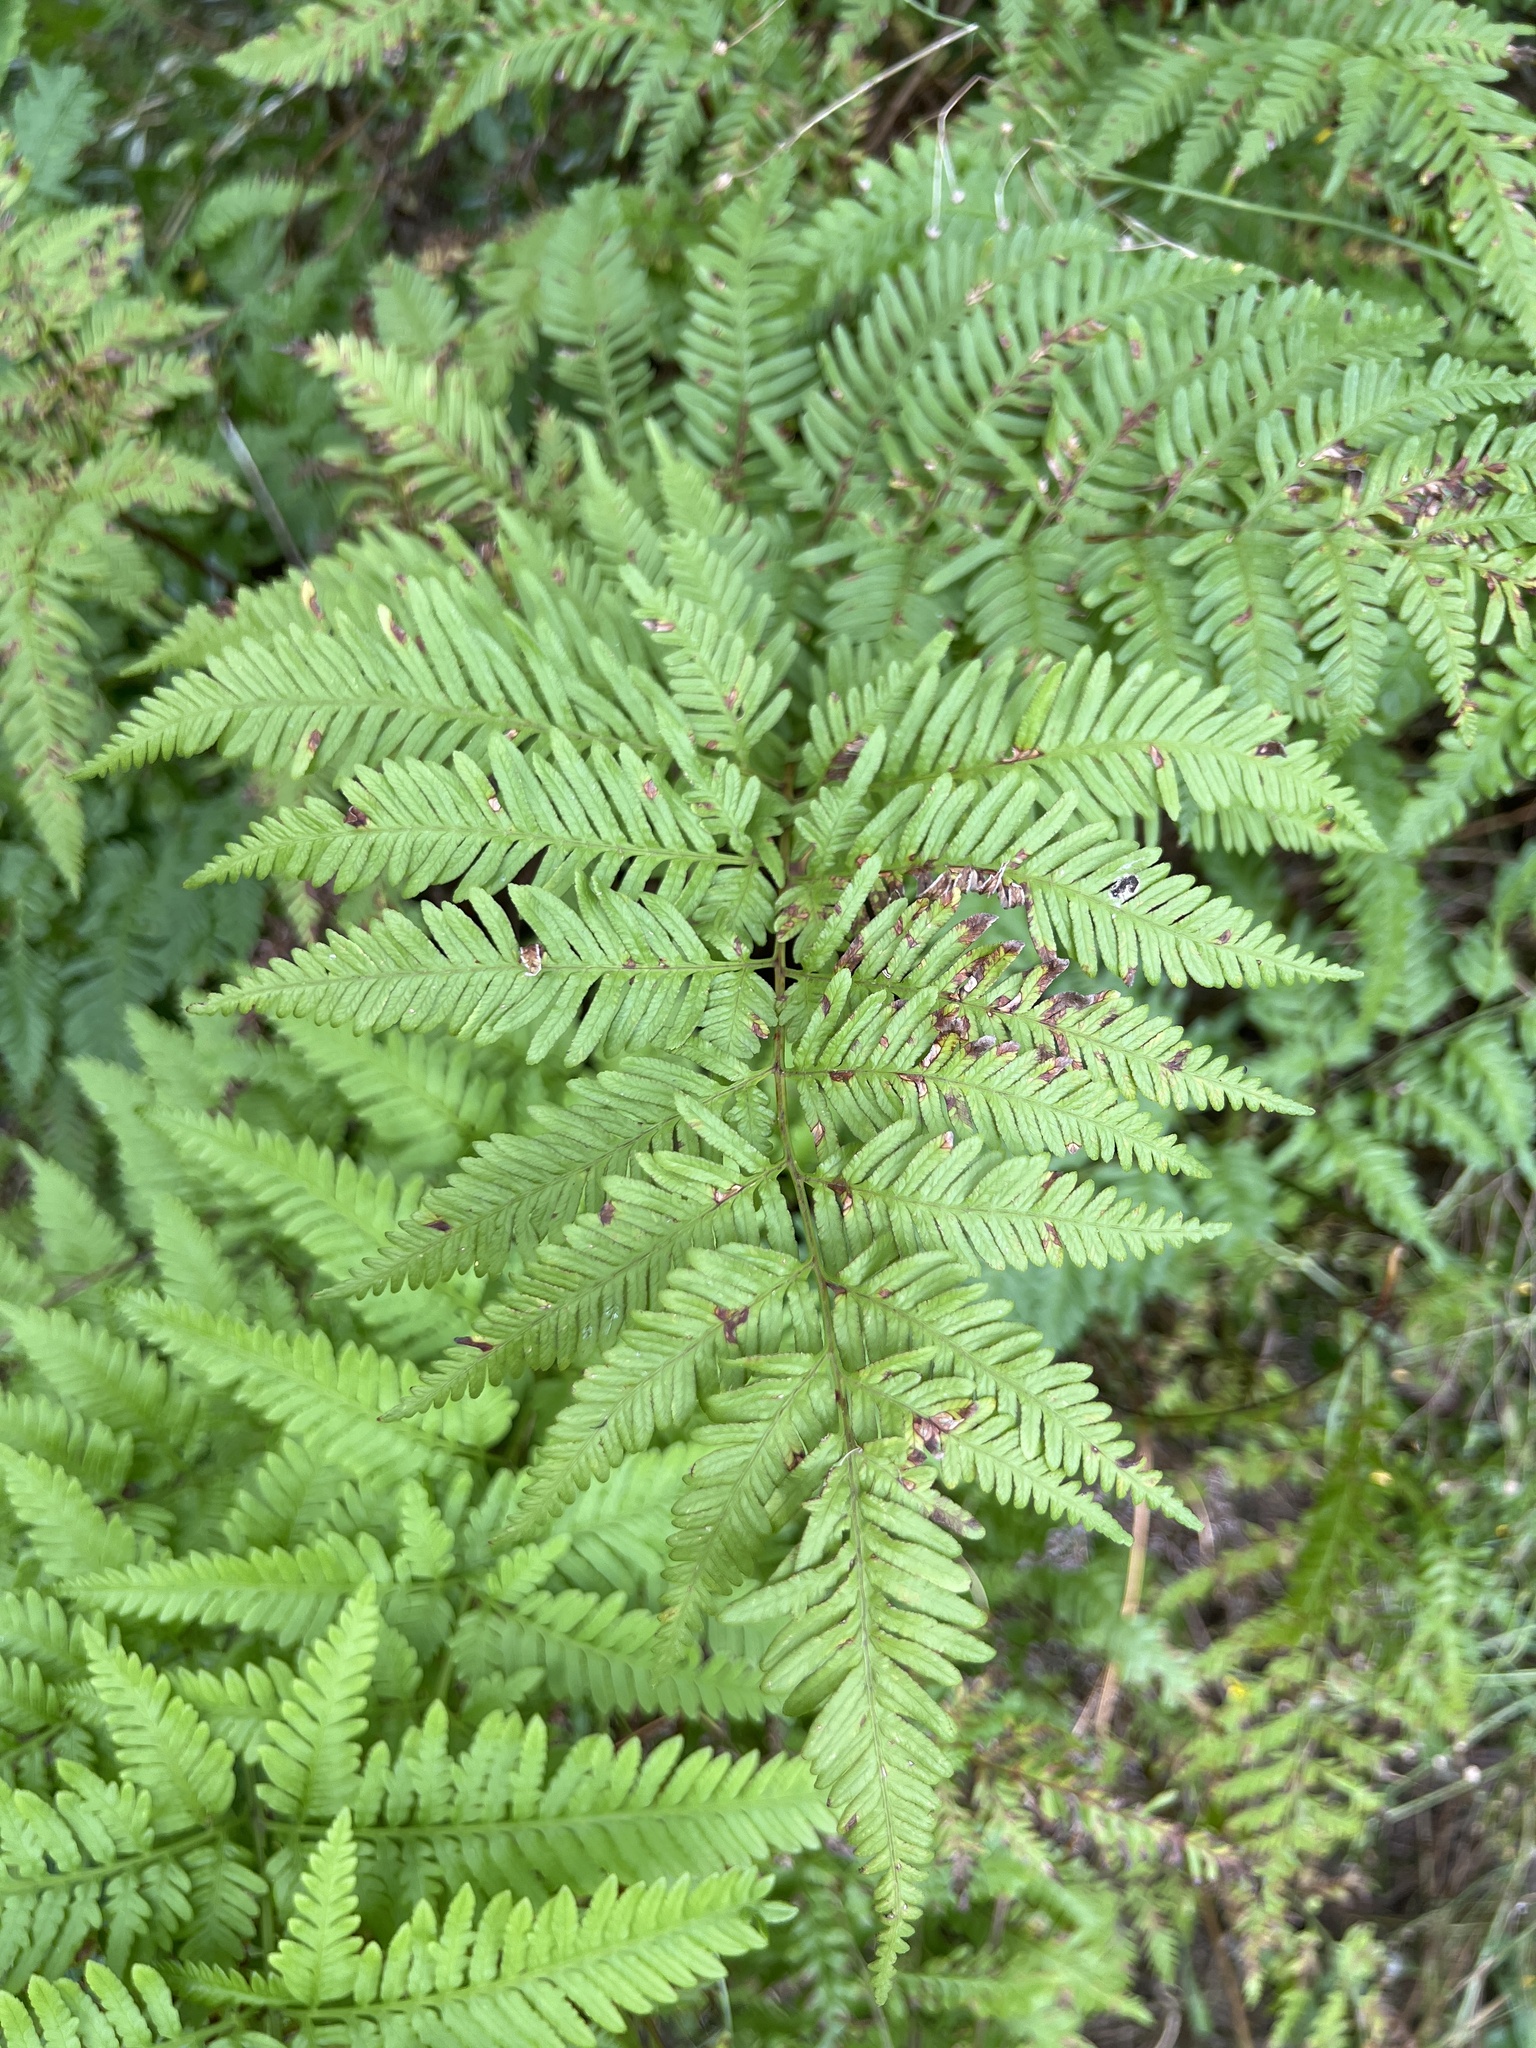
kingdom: Plantae
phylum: Tracheophyta
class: Polypodiopsida
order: Polypodiales
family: Pteridaceae
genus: Pteris
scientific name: Pteris tremula
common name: Australian brake
